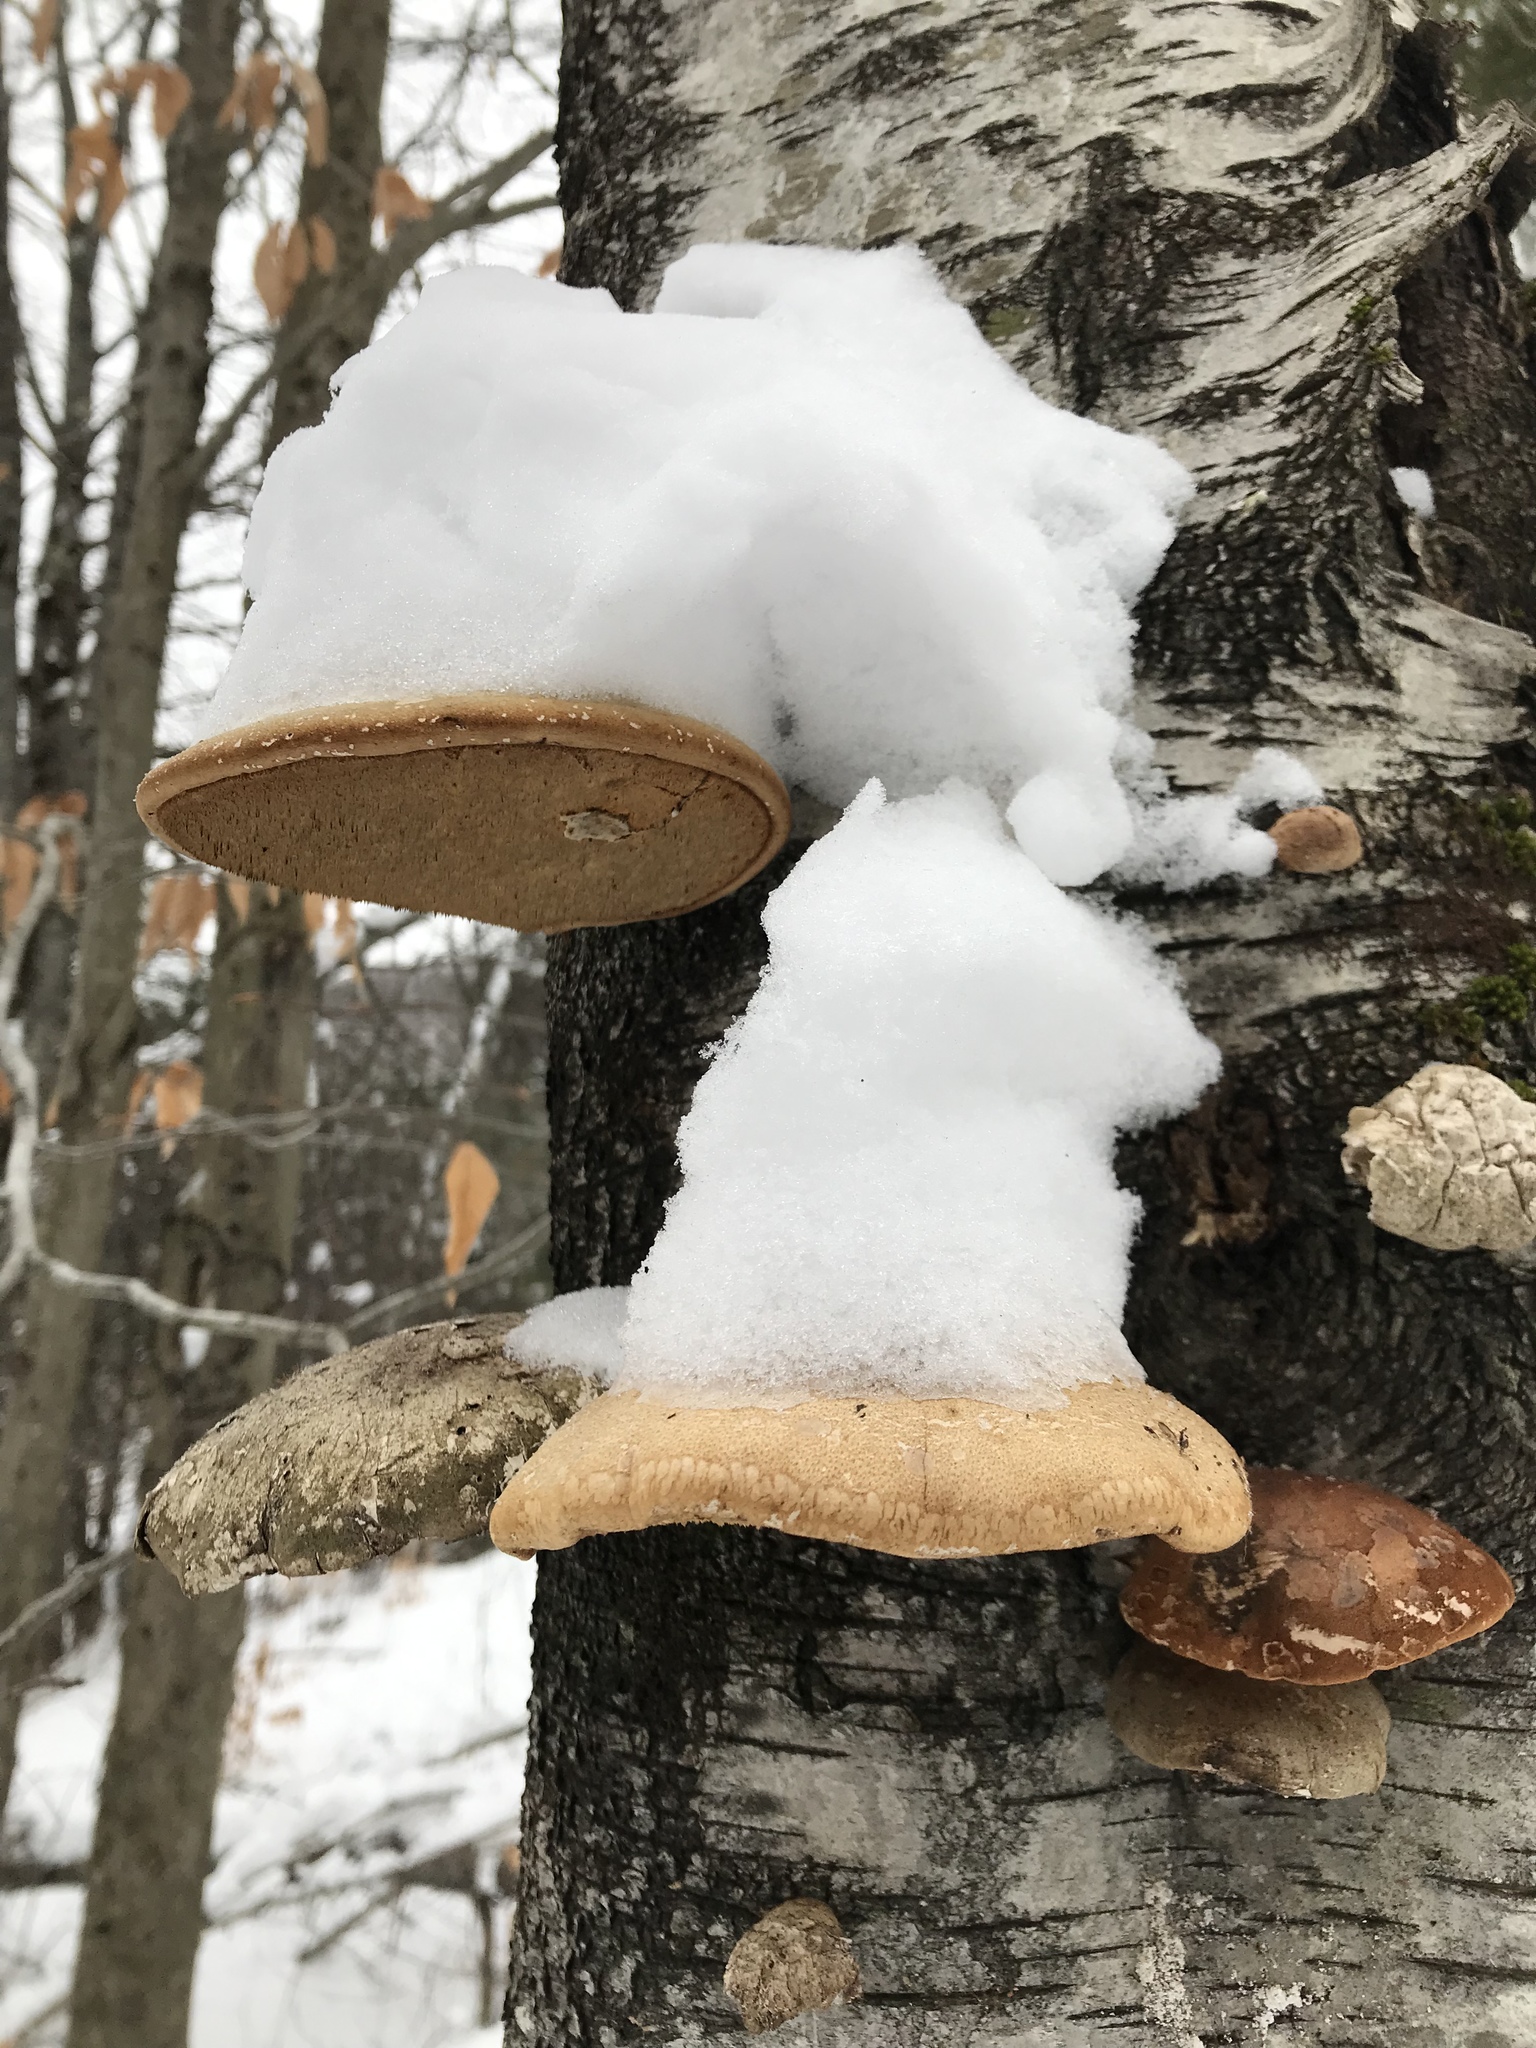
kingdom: Fungi
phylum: Basidiomycota
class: Agaricomycetes
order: Polyporales
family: Fomitopsidaceae
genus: Fomitopsis
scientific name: Fomitopsis betulina
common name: Birch polypore
